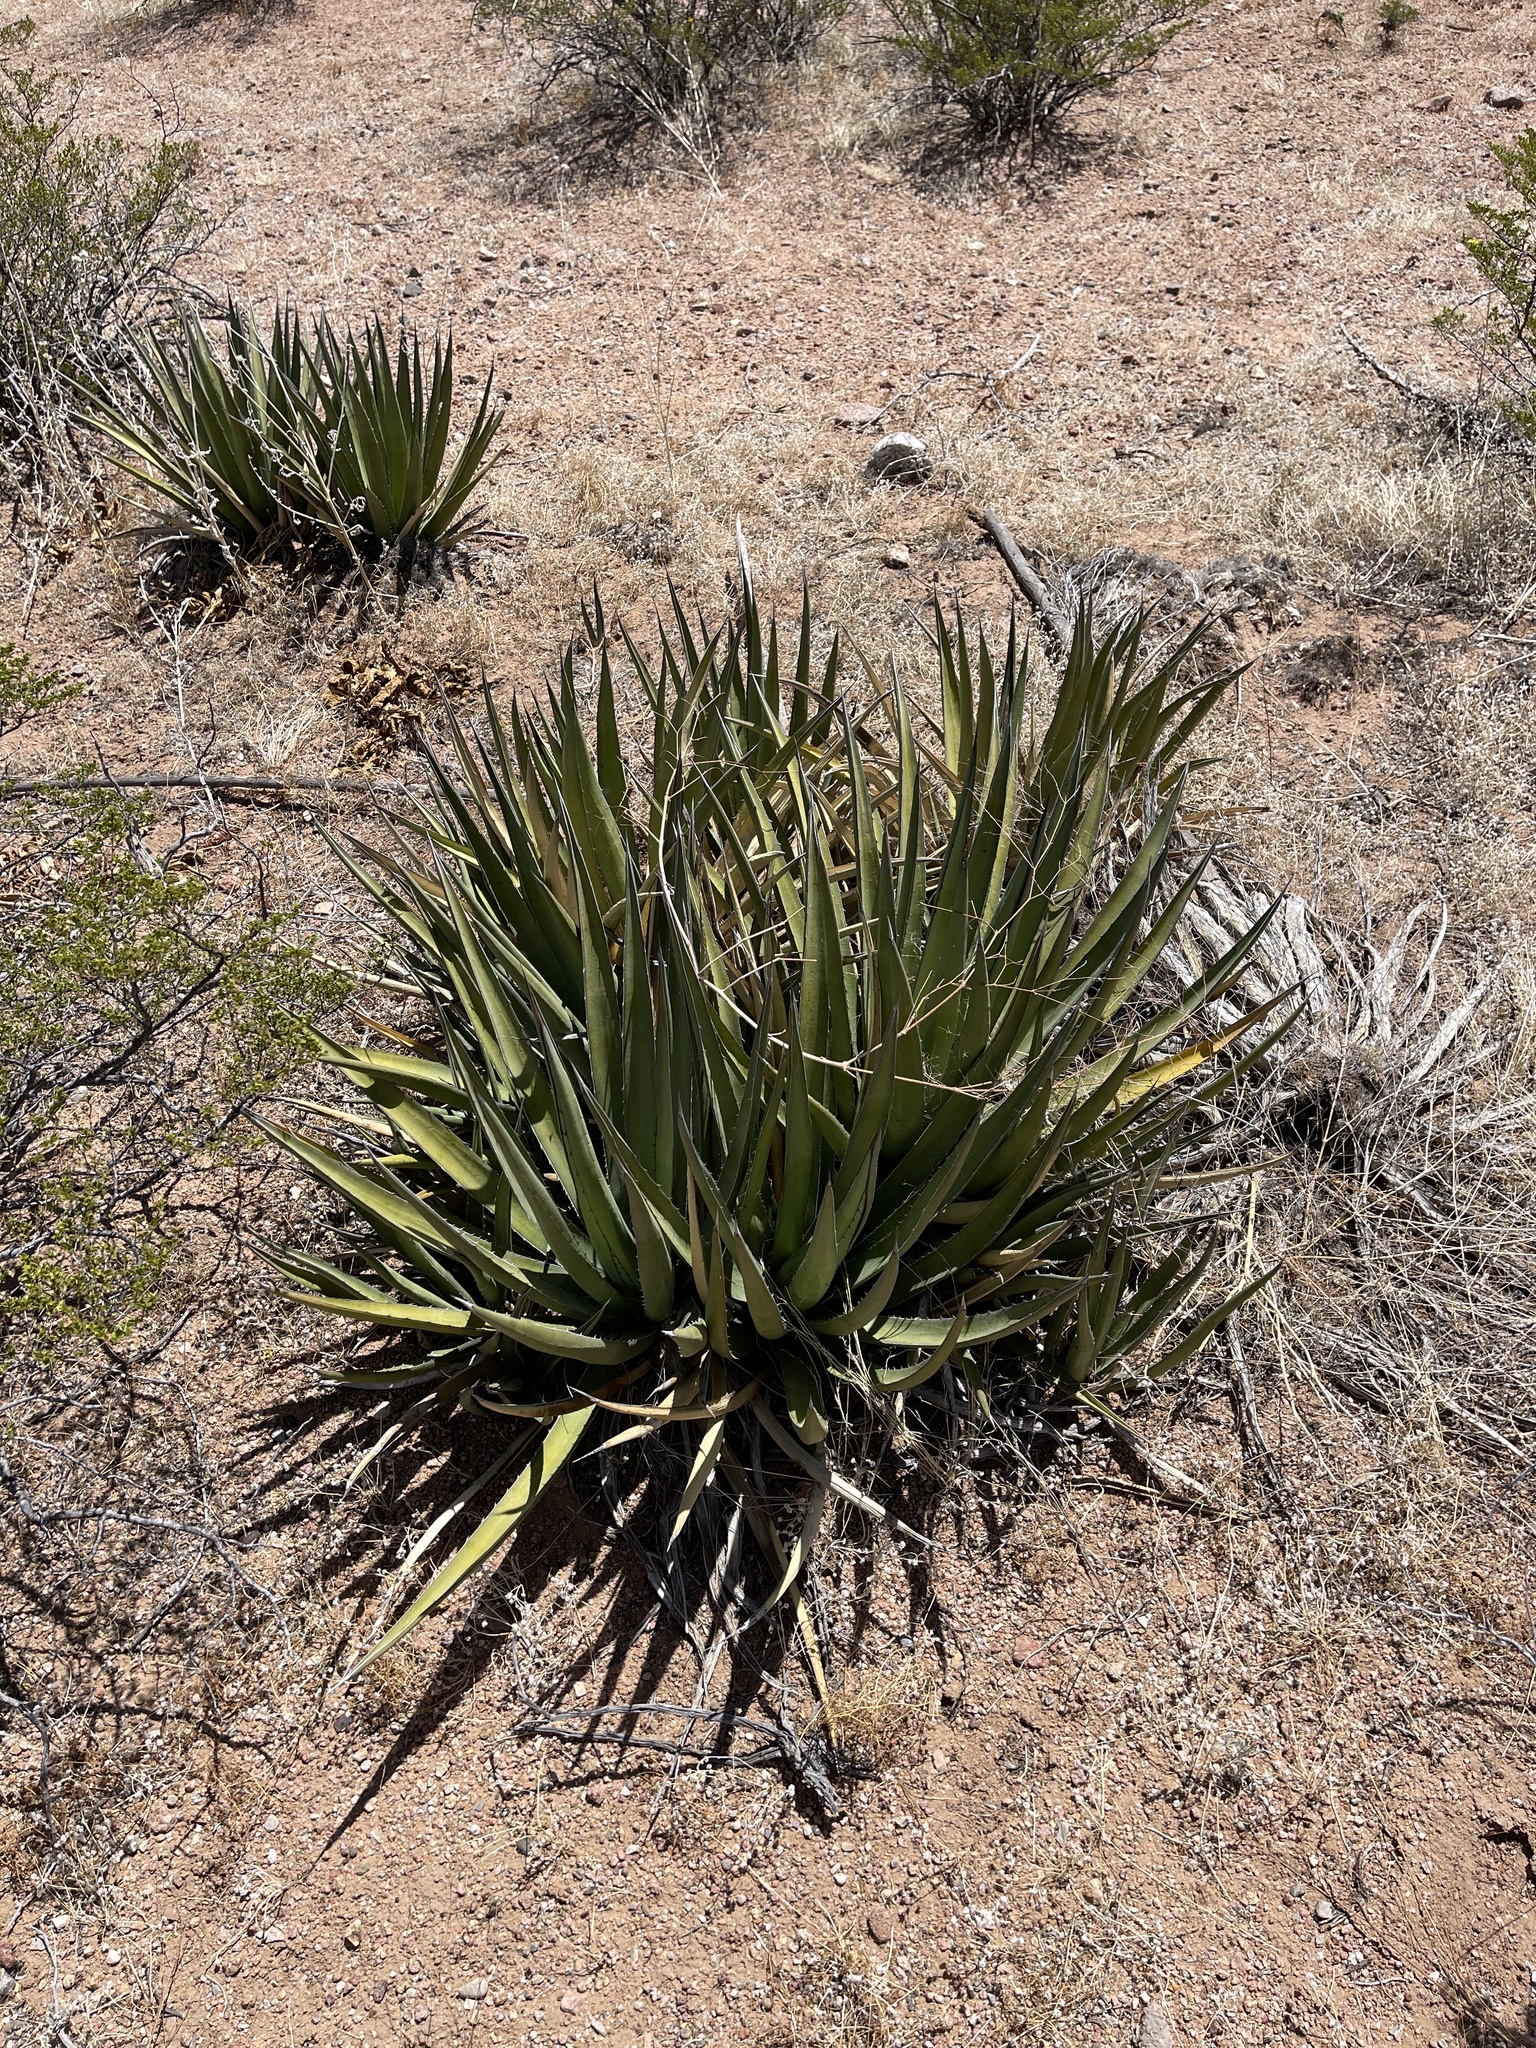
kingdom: Plantae
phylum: Tracheophyta
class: Liliopsida
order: Asparagales
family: Asparagaceae
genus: Agave
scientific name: Agave lechuguilla
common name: Lecheguilla agave
